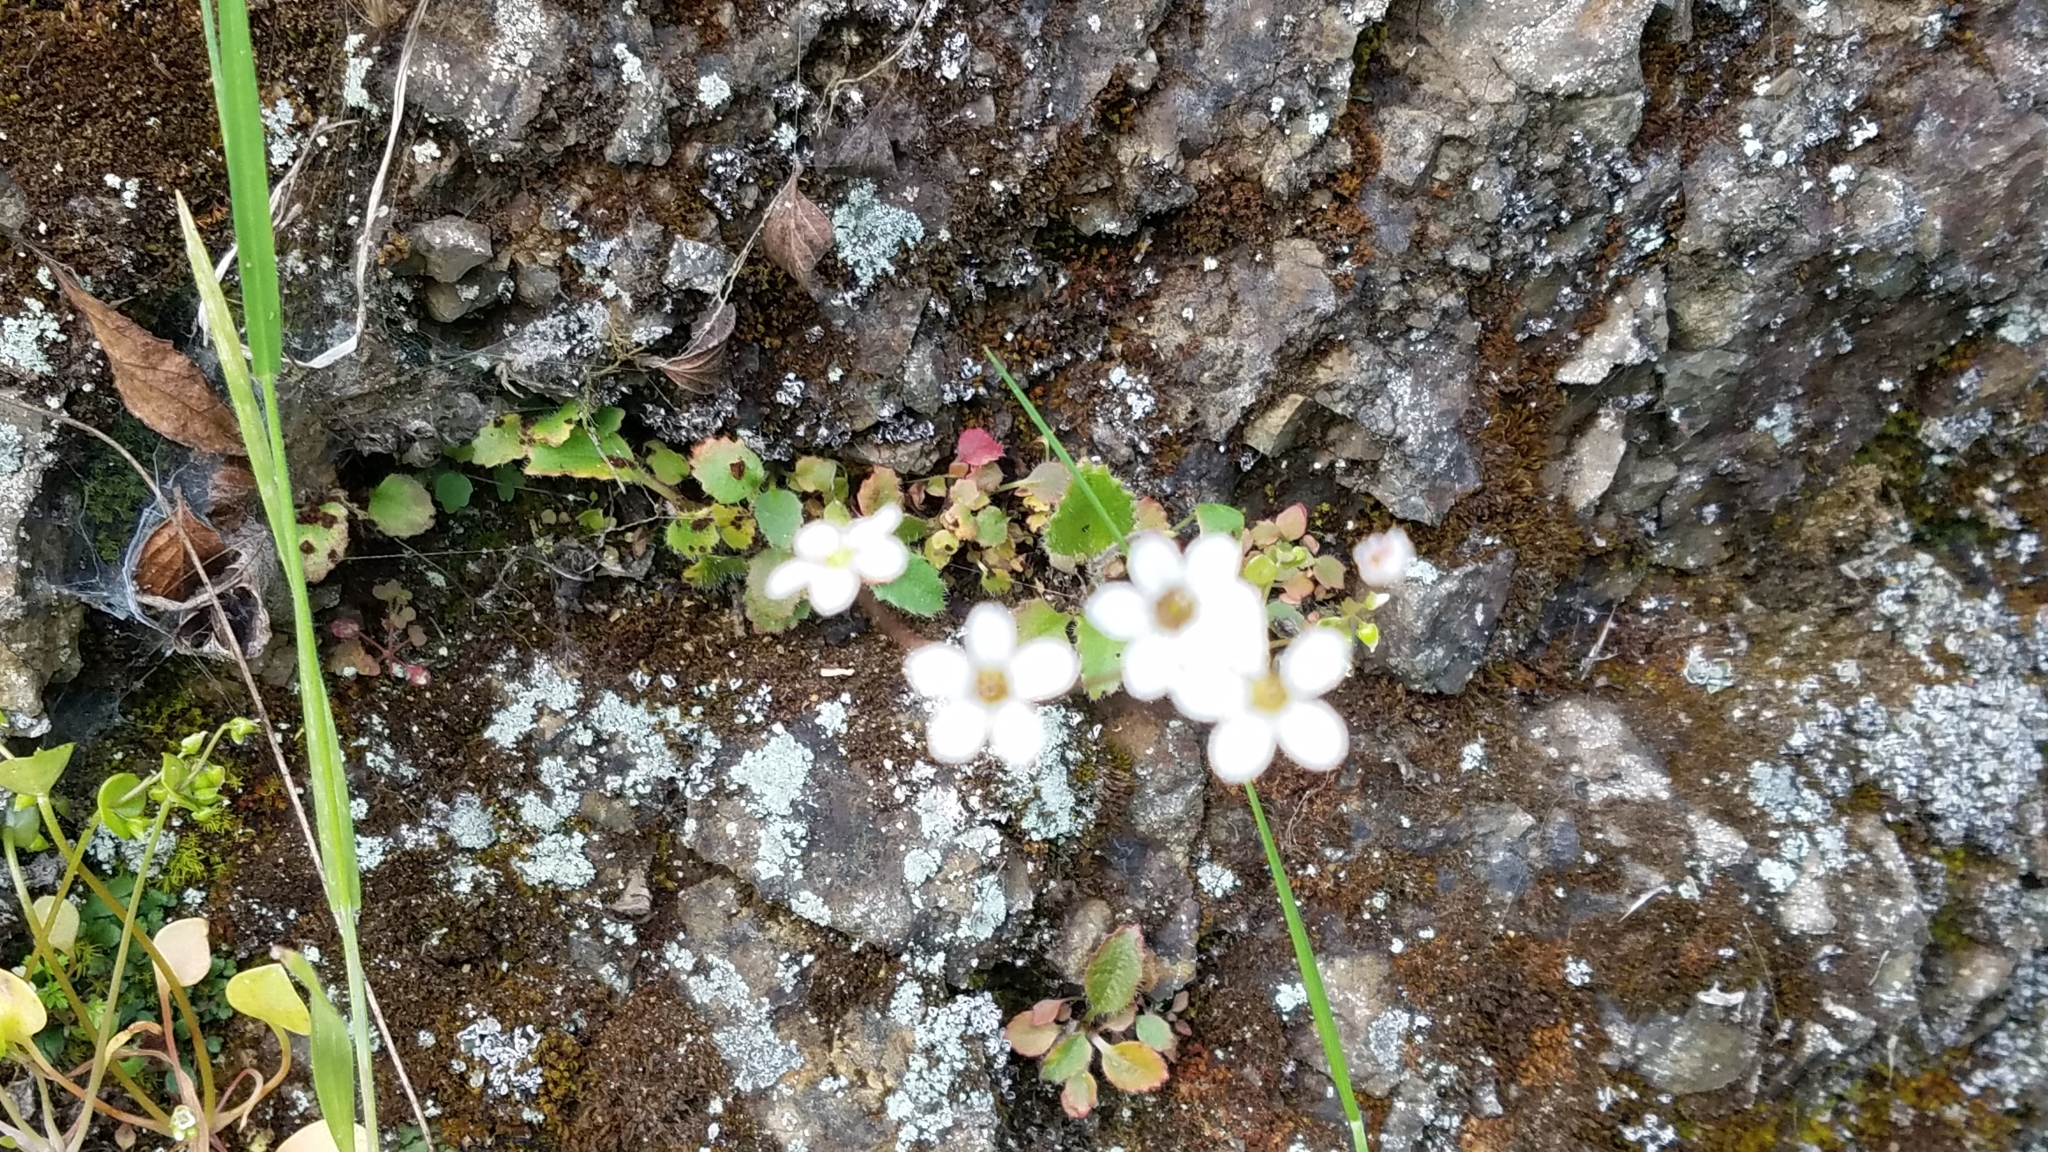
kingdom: Plantae
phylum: Tracheophyta
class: Magnoliopsida
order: Saxifragales
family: Saxifragaceae
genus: Micranthes
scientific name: Micranthes californica
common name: California saxifrage
